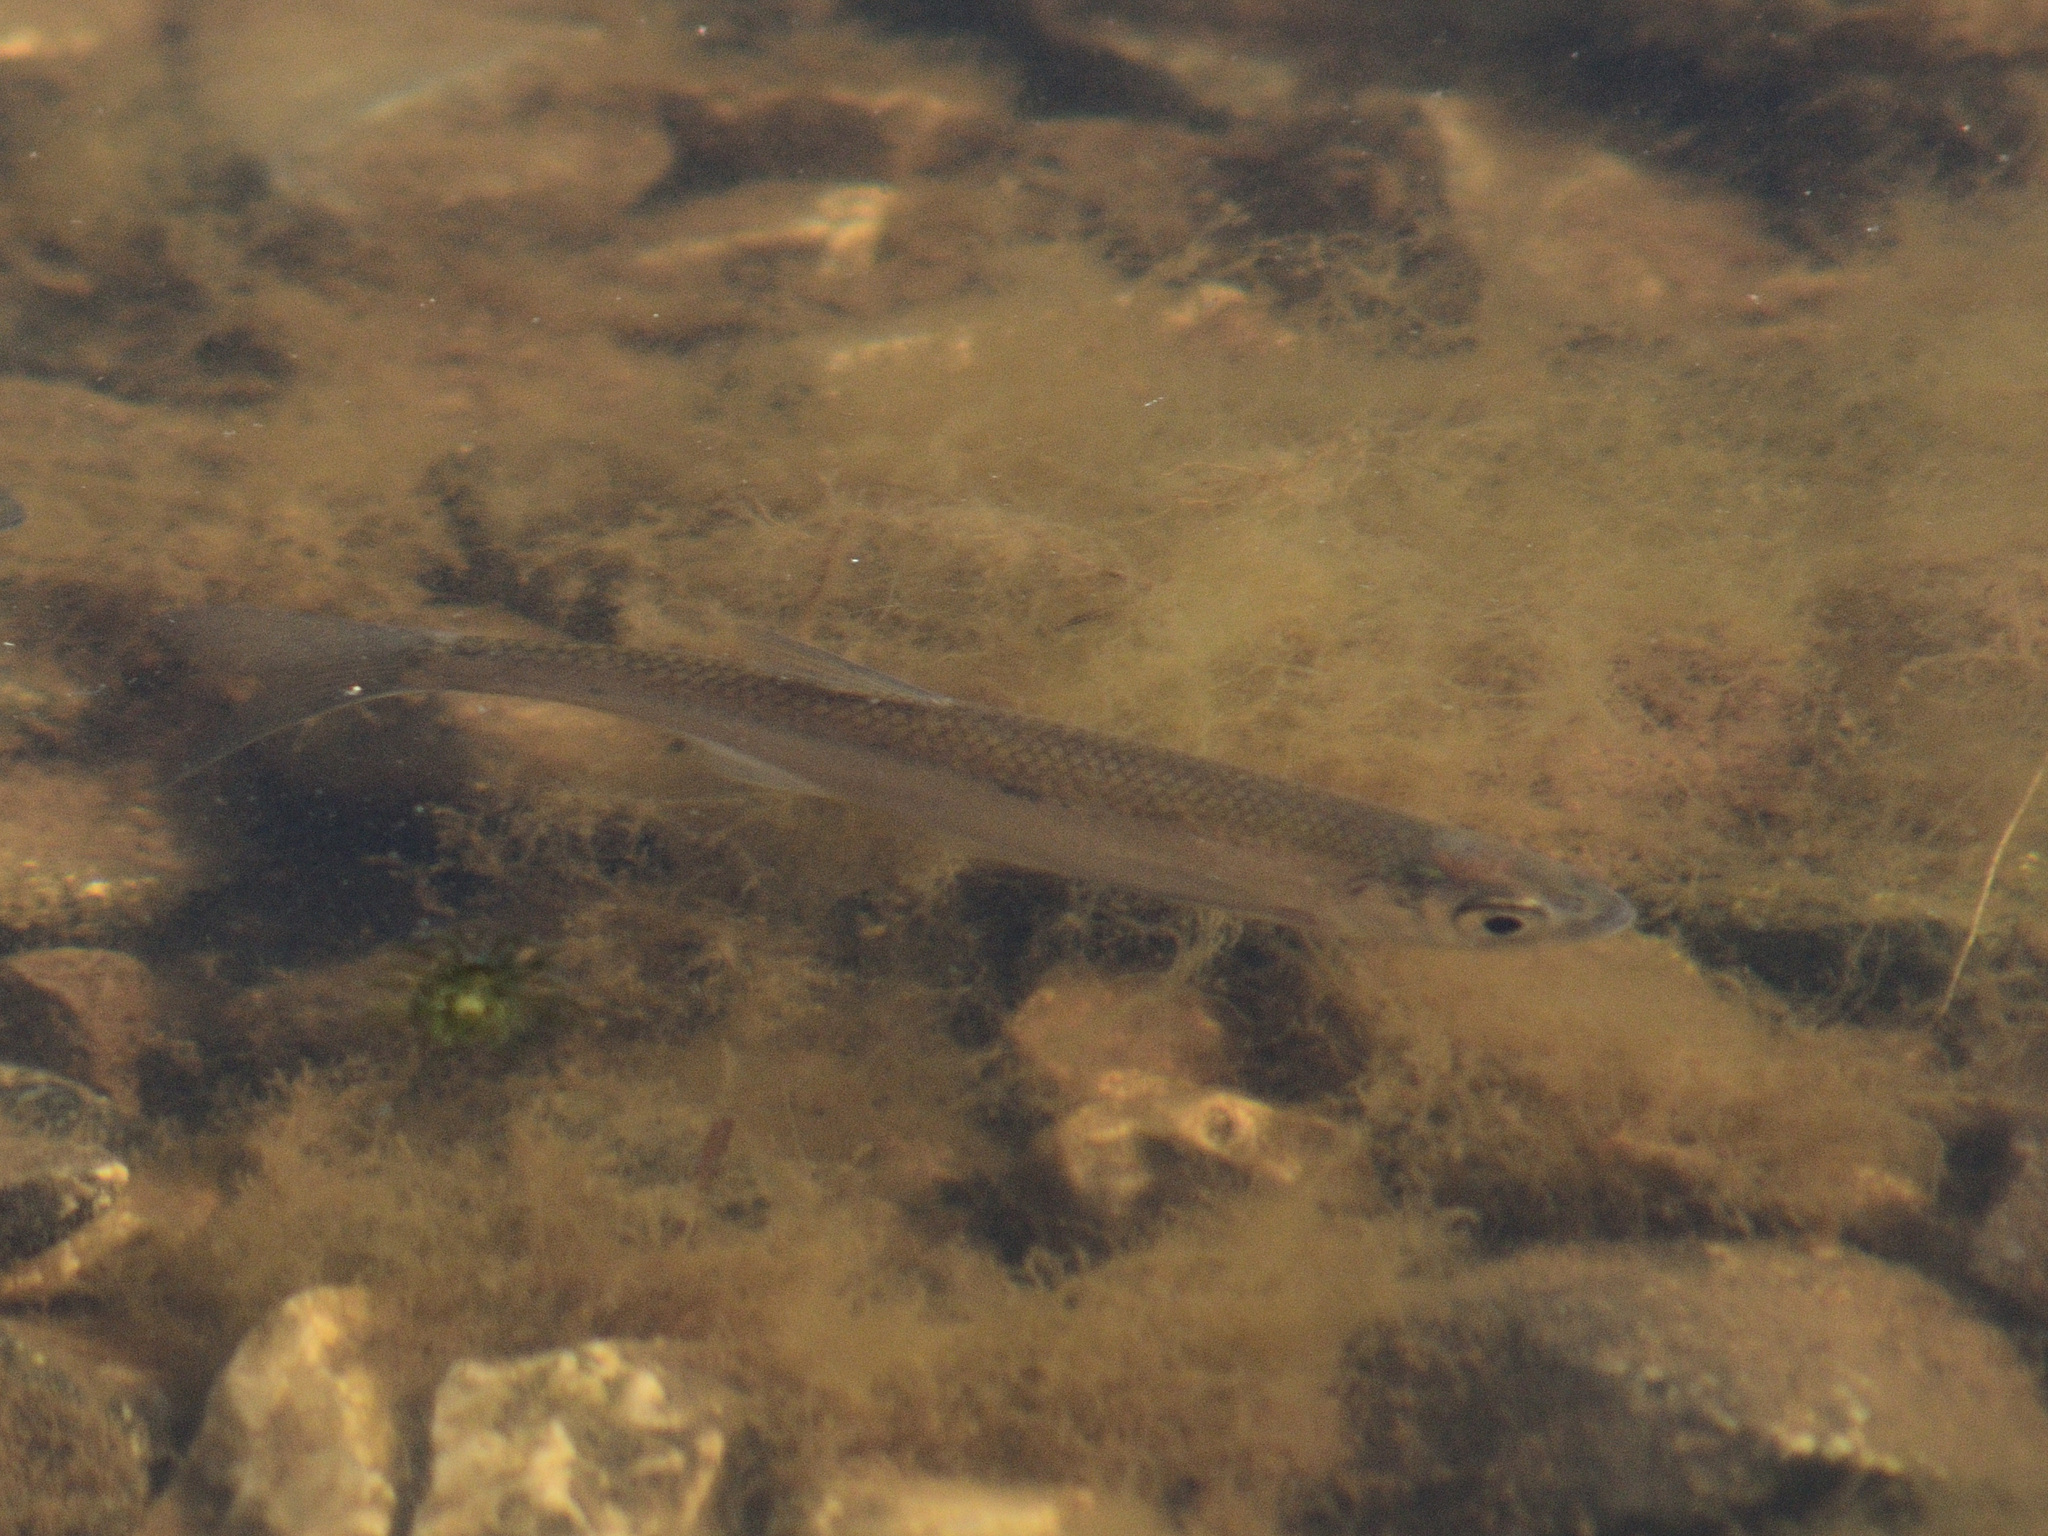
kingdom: Animalia
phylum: Chordata
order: Cypriniformes
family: Cyprinidae
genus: Alburnus
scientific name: Alburnus alburnus
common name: Bleak
